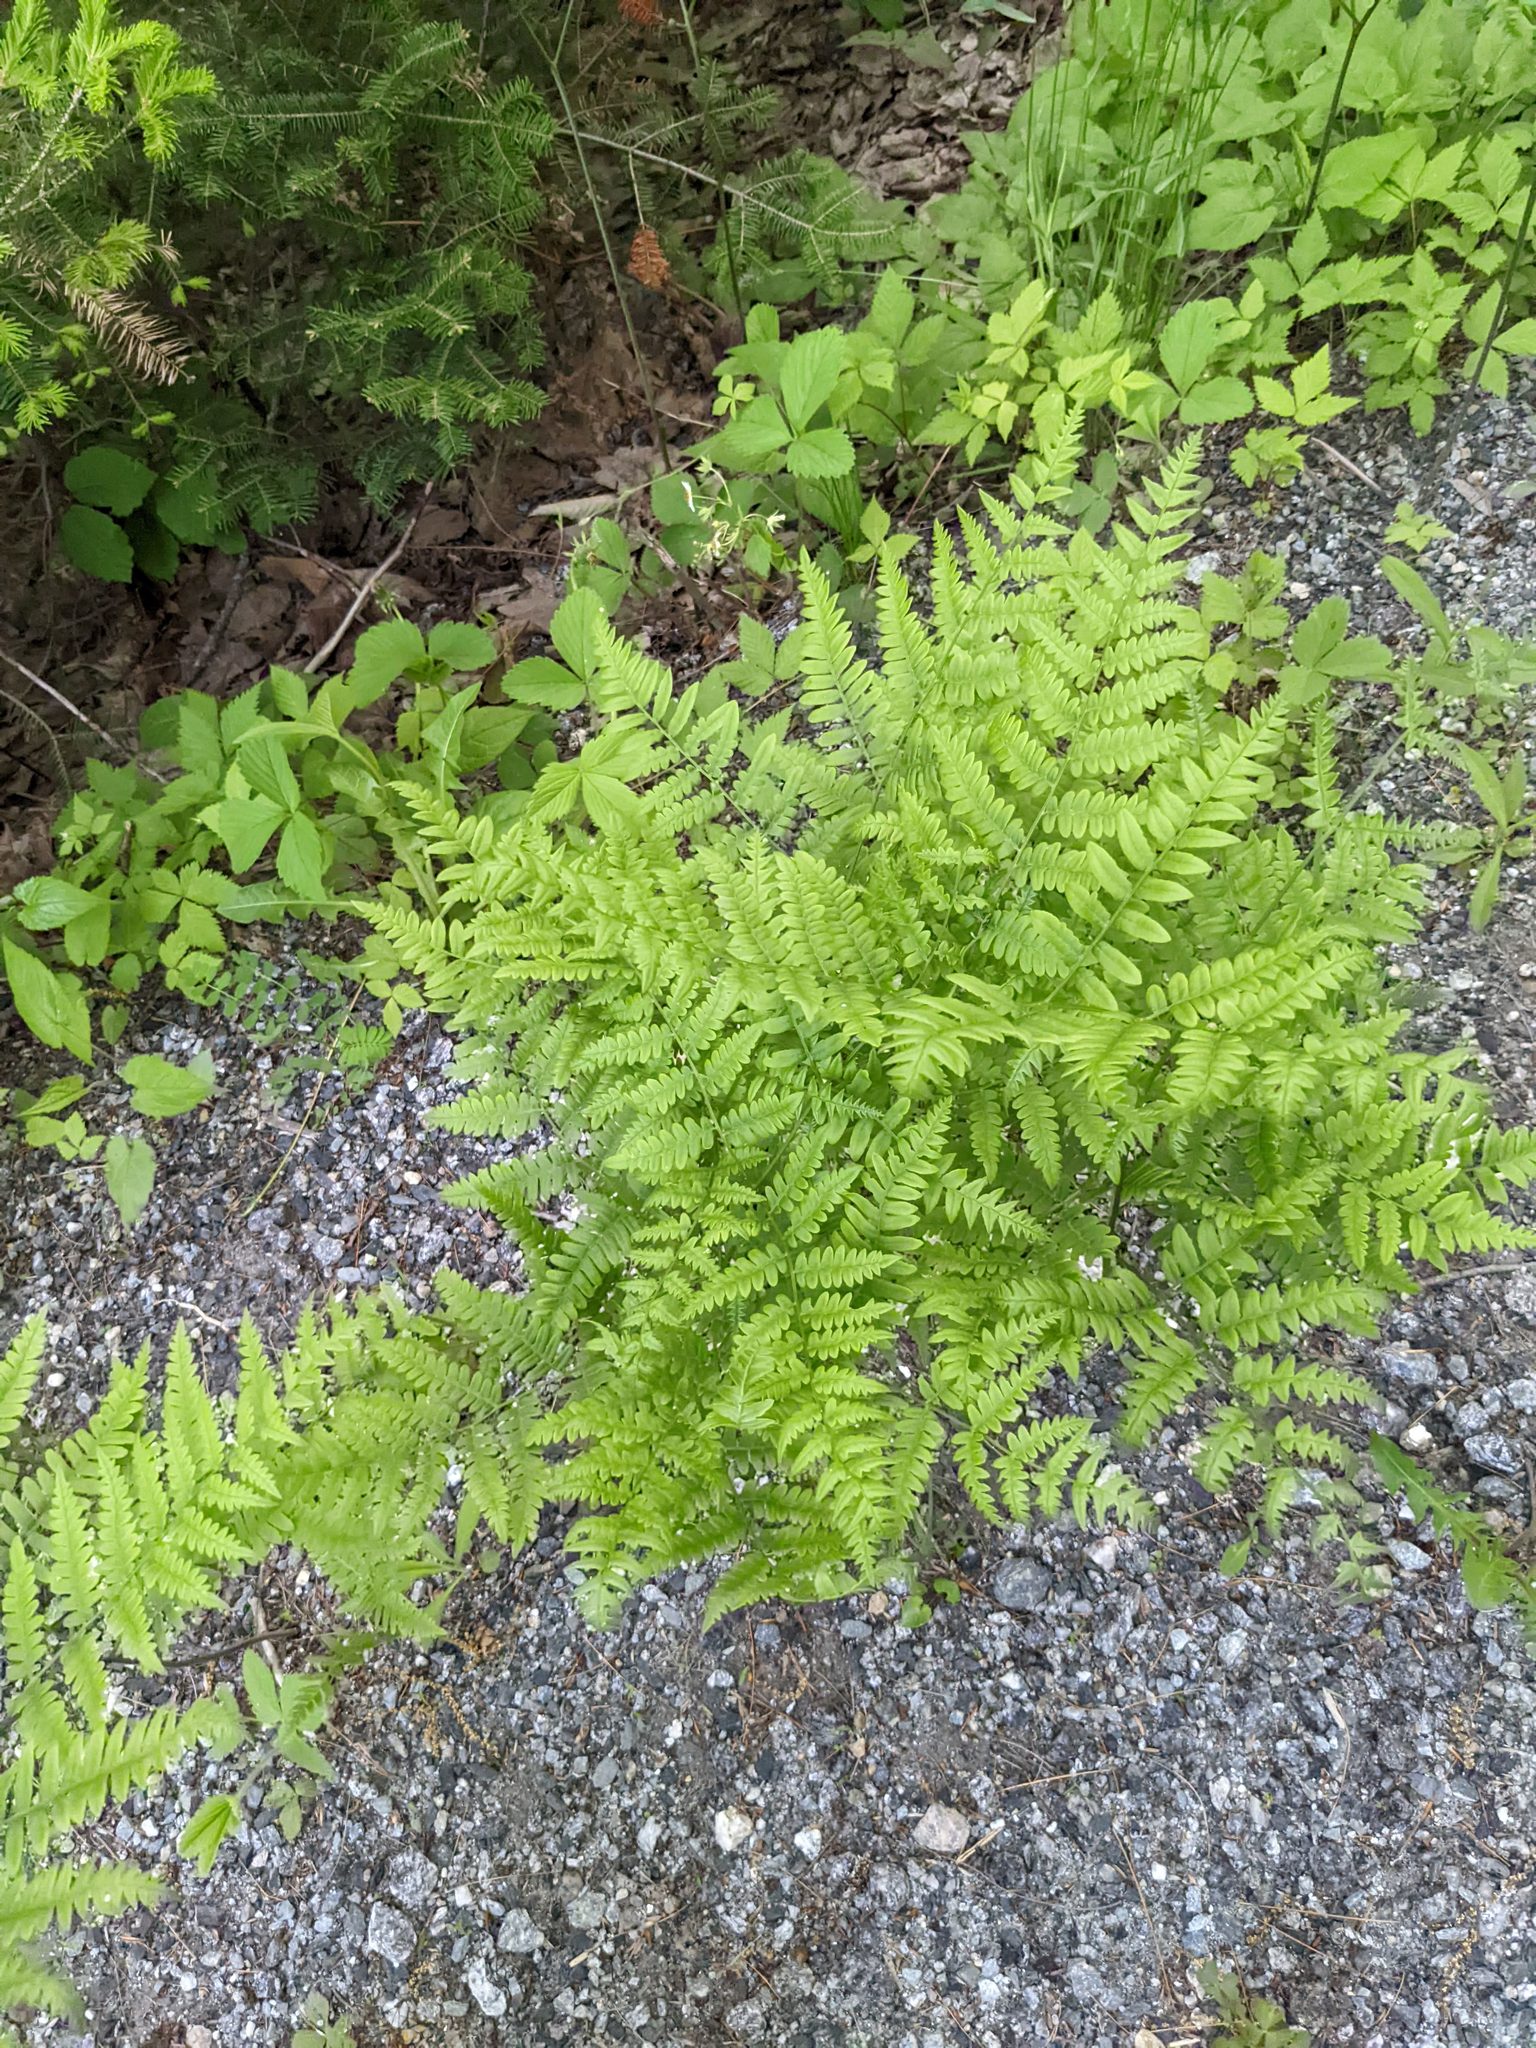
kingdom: Plantae
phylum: Tracheophyta
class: Polypodiopsida
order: Polypodiales
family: Dennstaedtiaceae
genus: Pteridium
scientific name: Pteridium aquilinum
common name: Bracken
